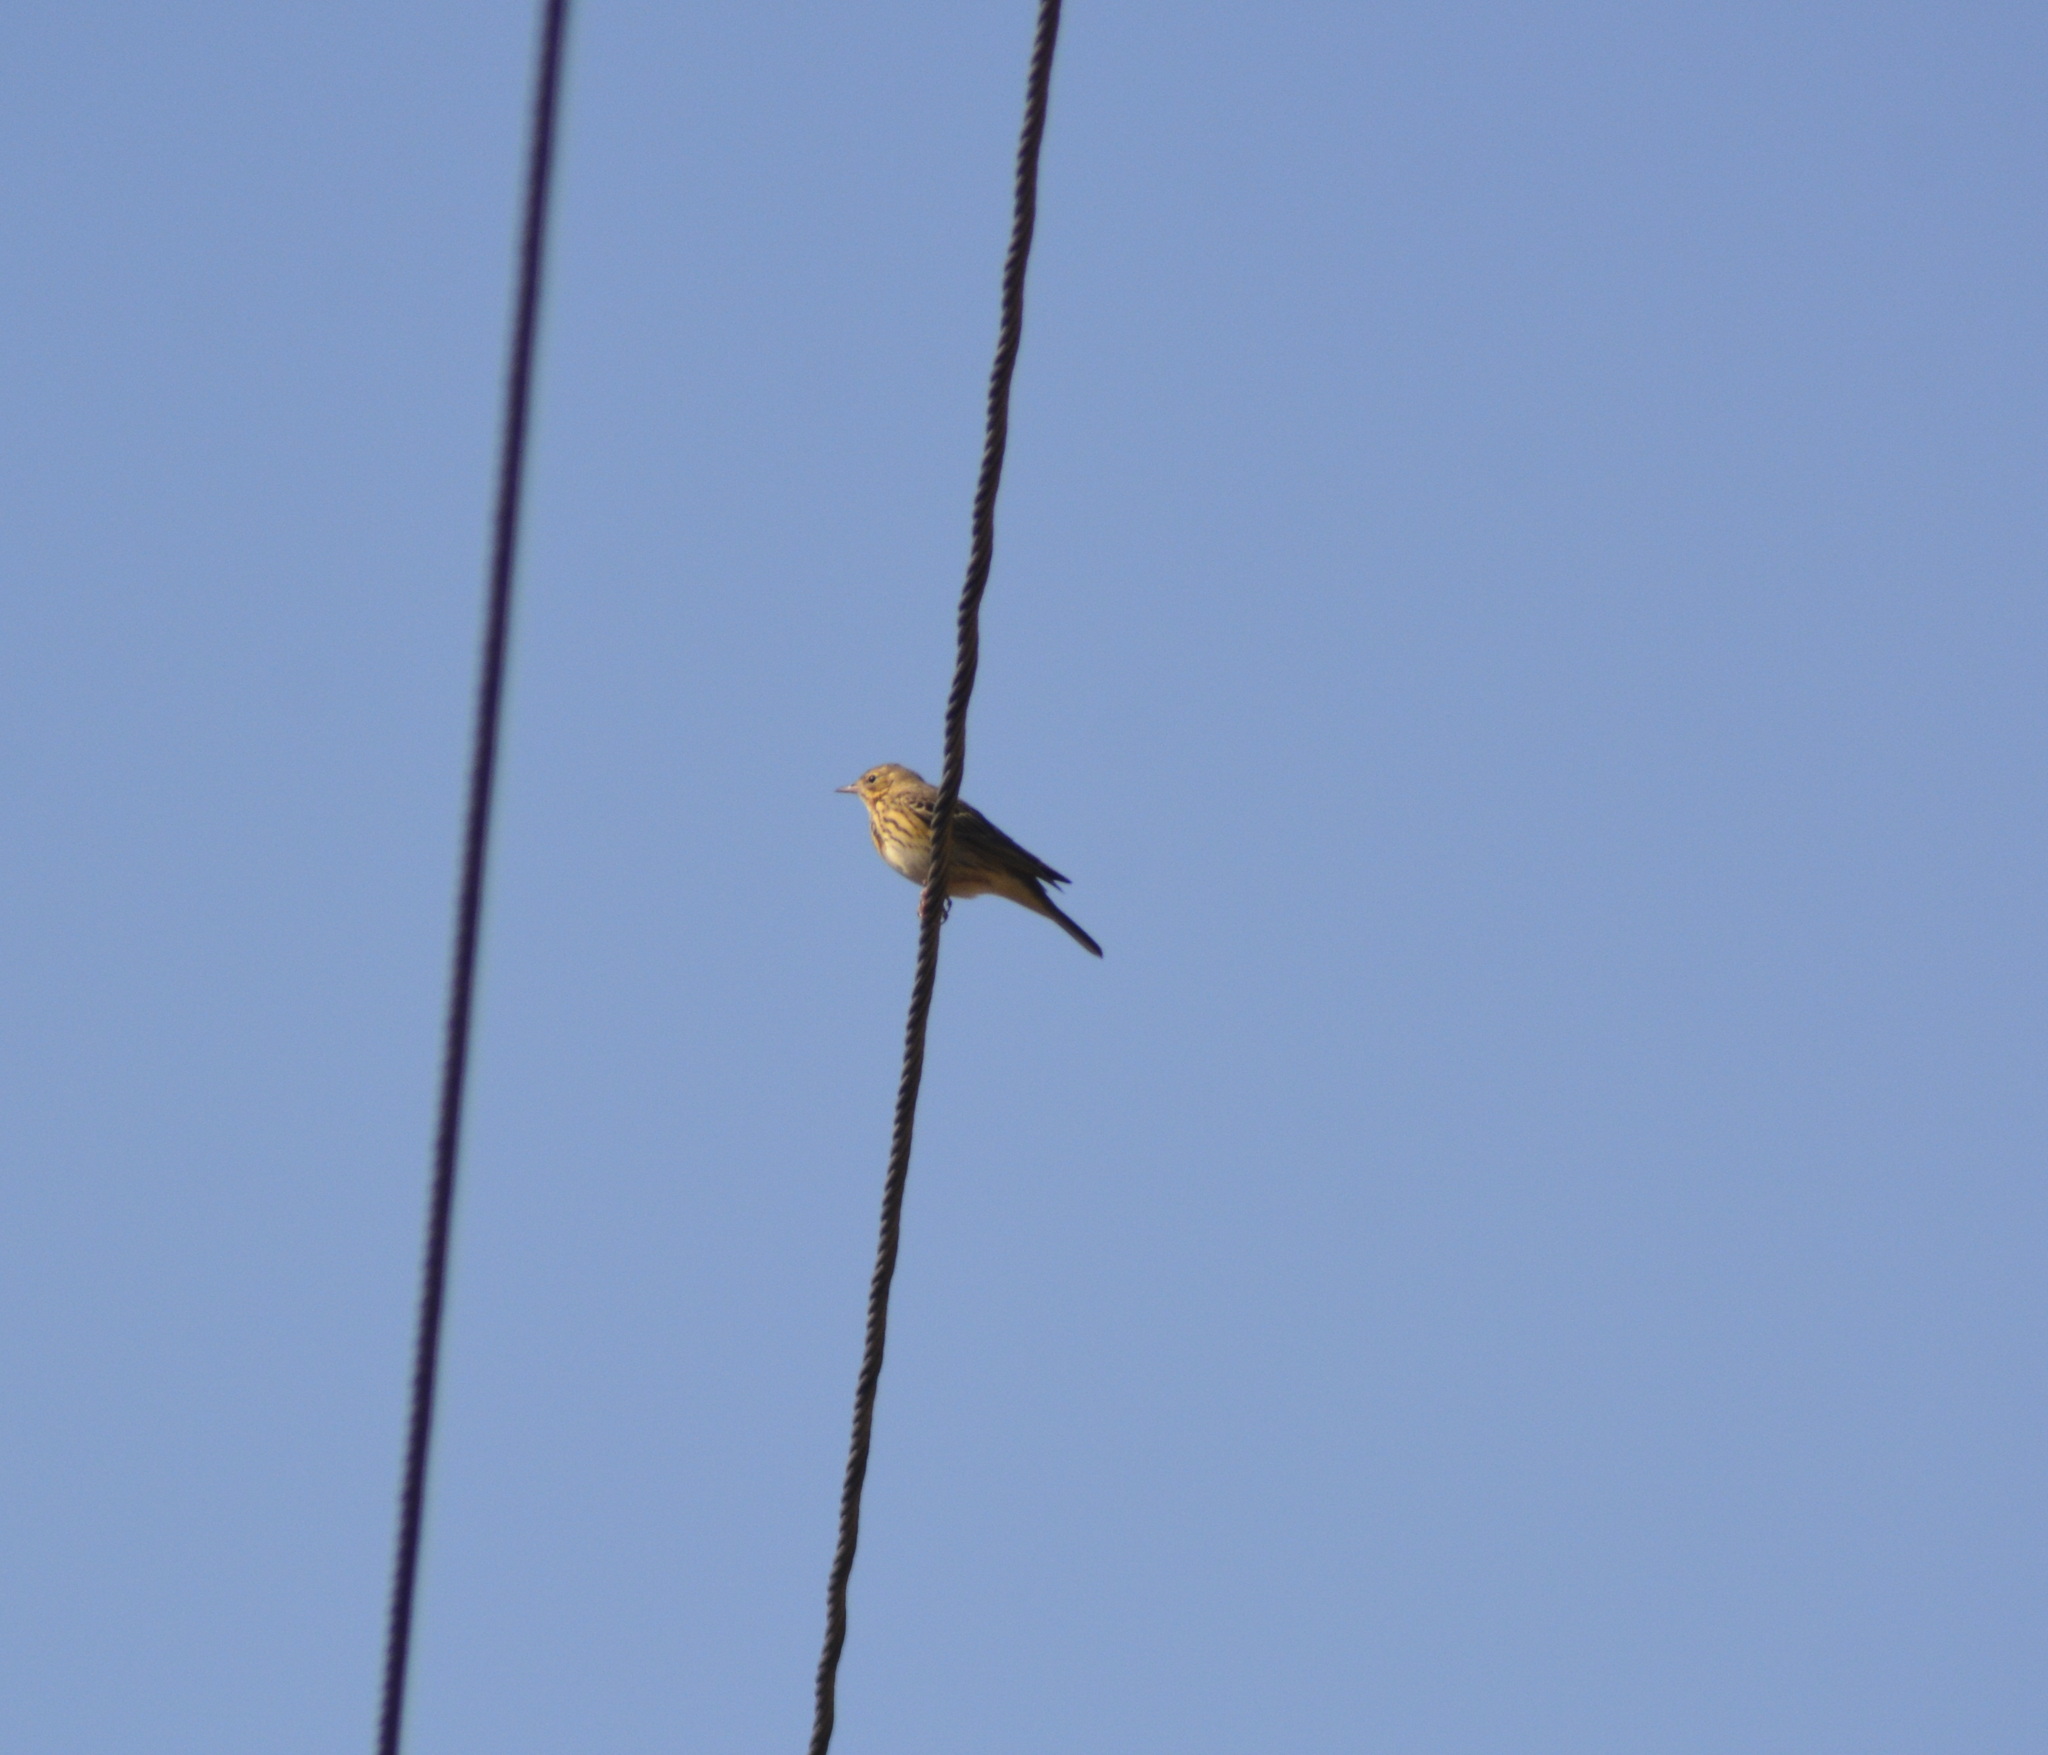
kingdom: Animalia
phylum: Chordata
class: Aves
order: Passeriformes
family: Motacillidae
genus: Anthus
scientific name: Anthus trivialis
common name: Tree pipit
